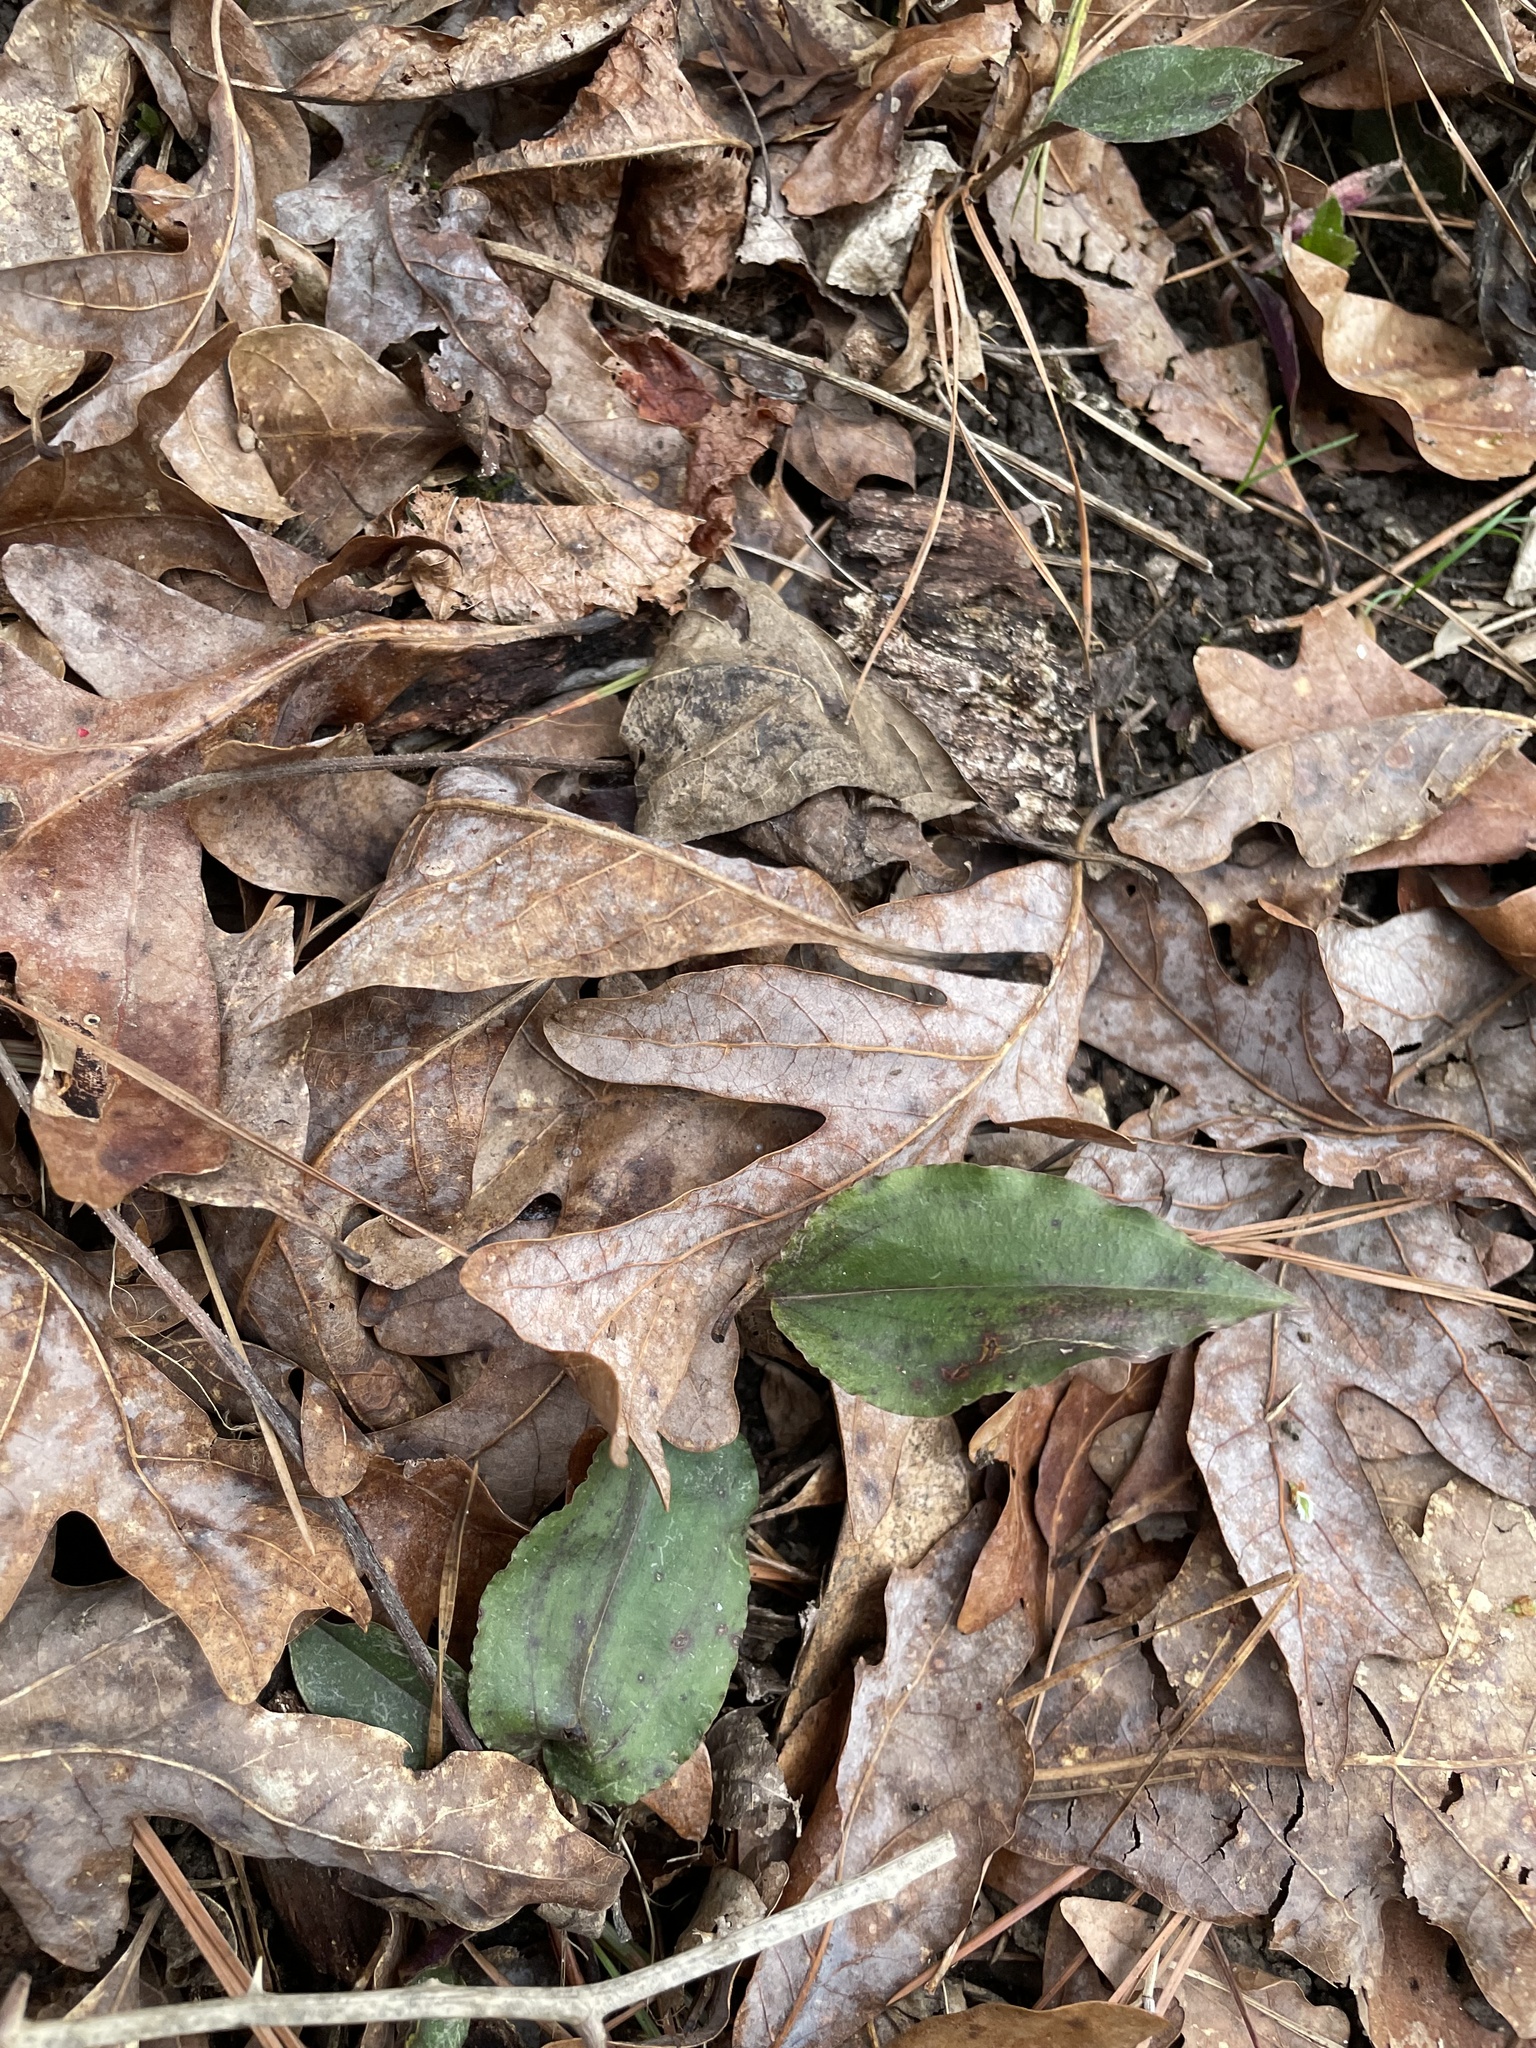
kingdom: Plantae
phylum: Tracheophyta
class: Liliopsida
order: Asparagales
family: Orchidaceae
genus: Tipularia
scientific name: Tipularia discolor
